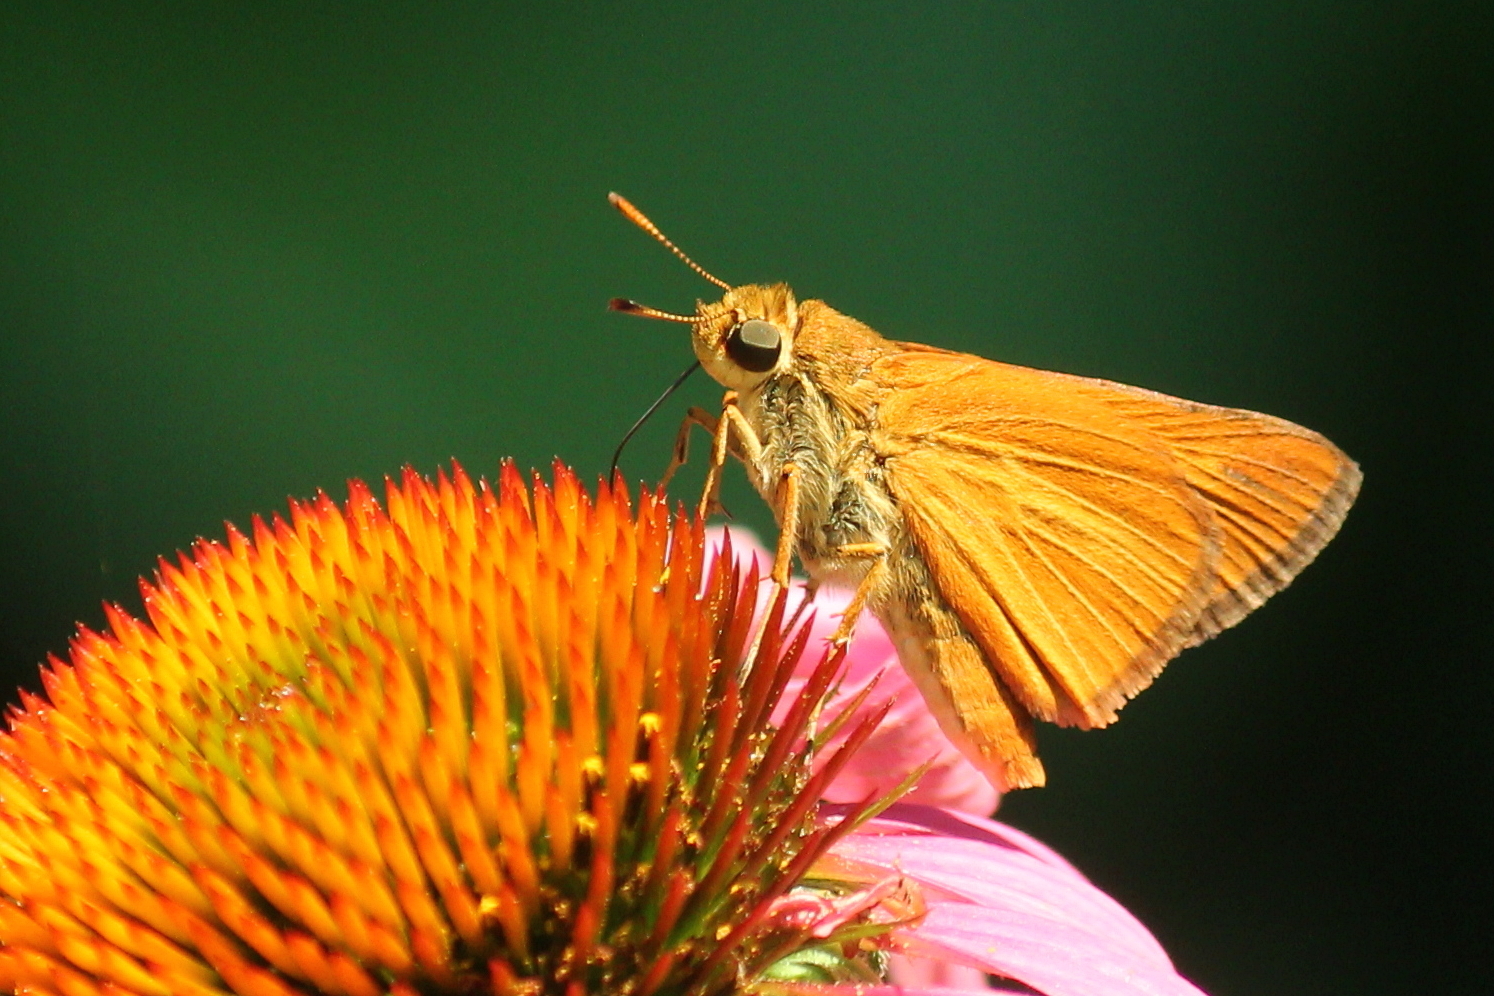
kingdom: Animalia
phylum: Arthropoda
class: Insecta
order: Lepidoptera
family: Hesperiidae
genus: Euphyes
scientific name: Euphyes dion
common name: Dion skipper
